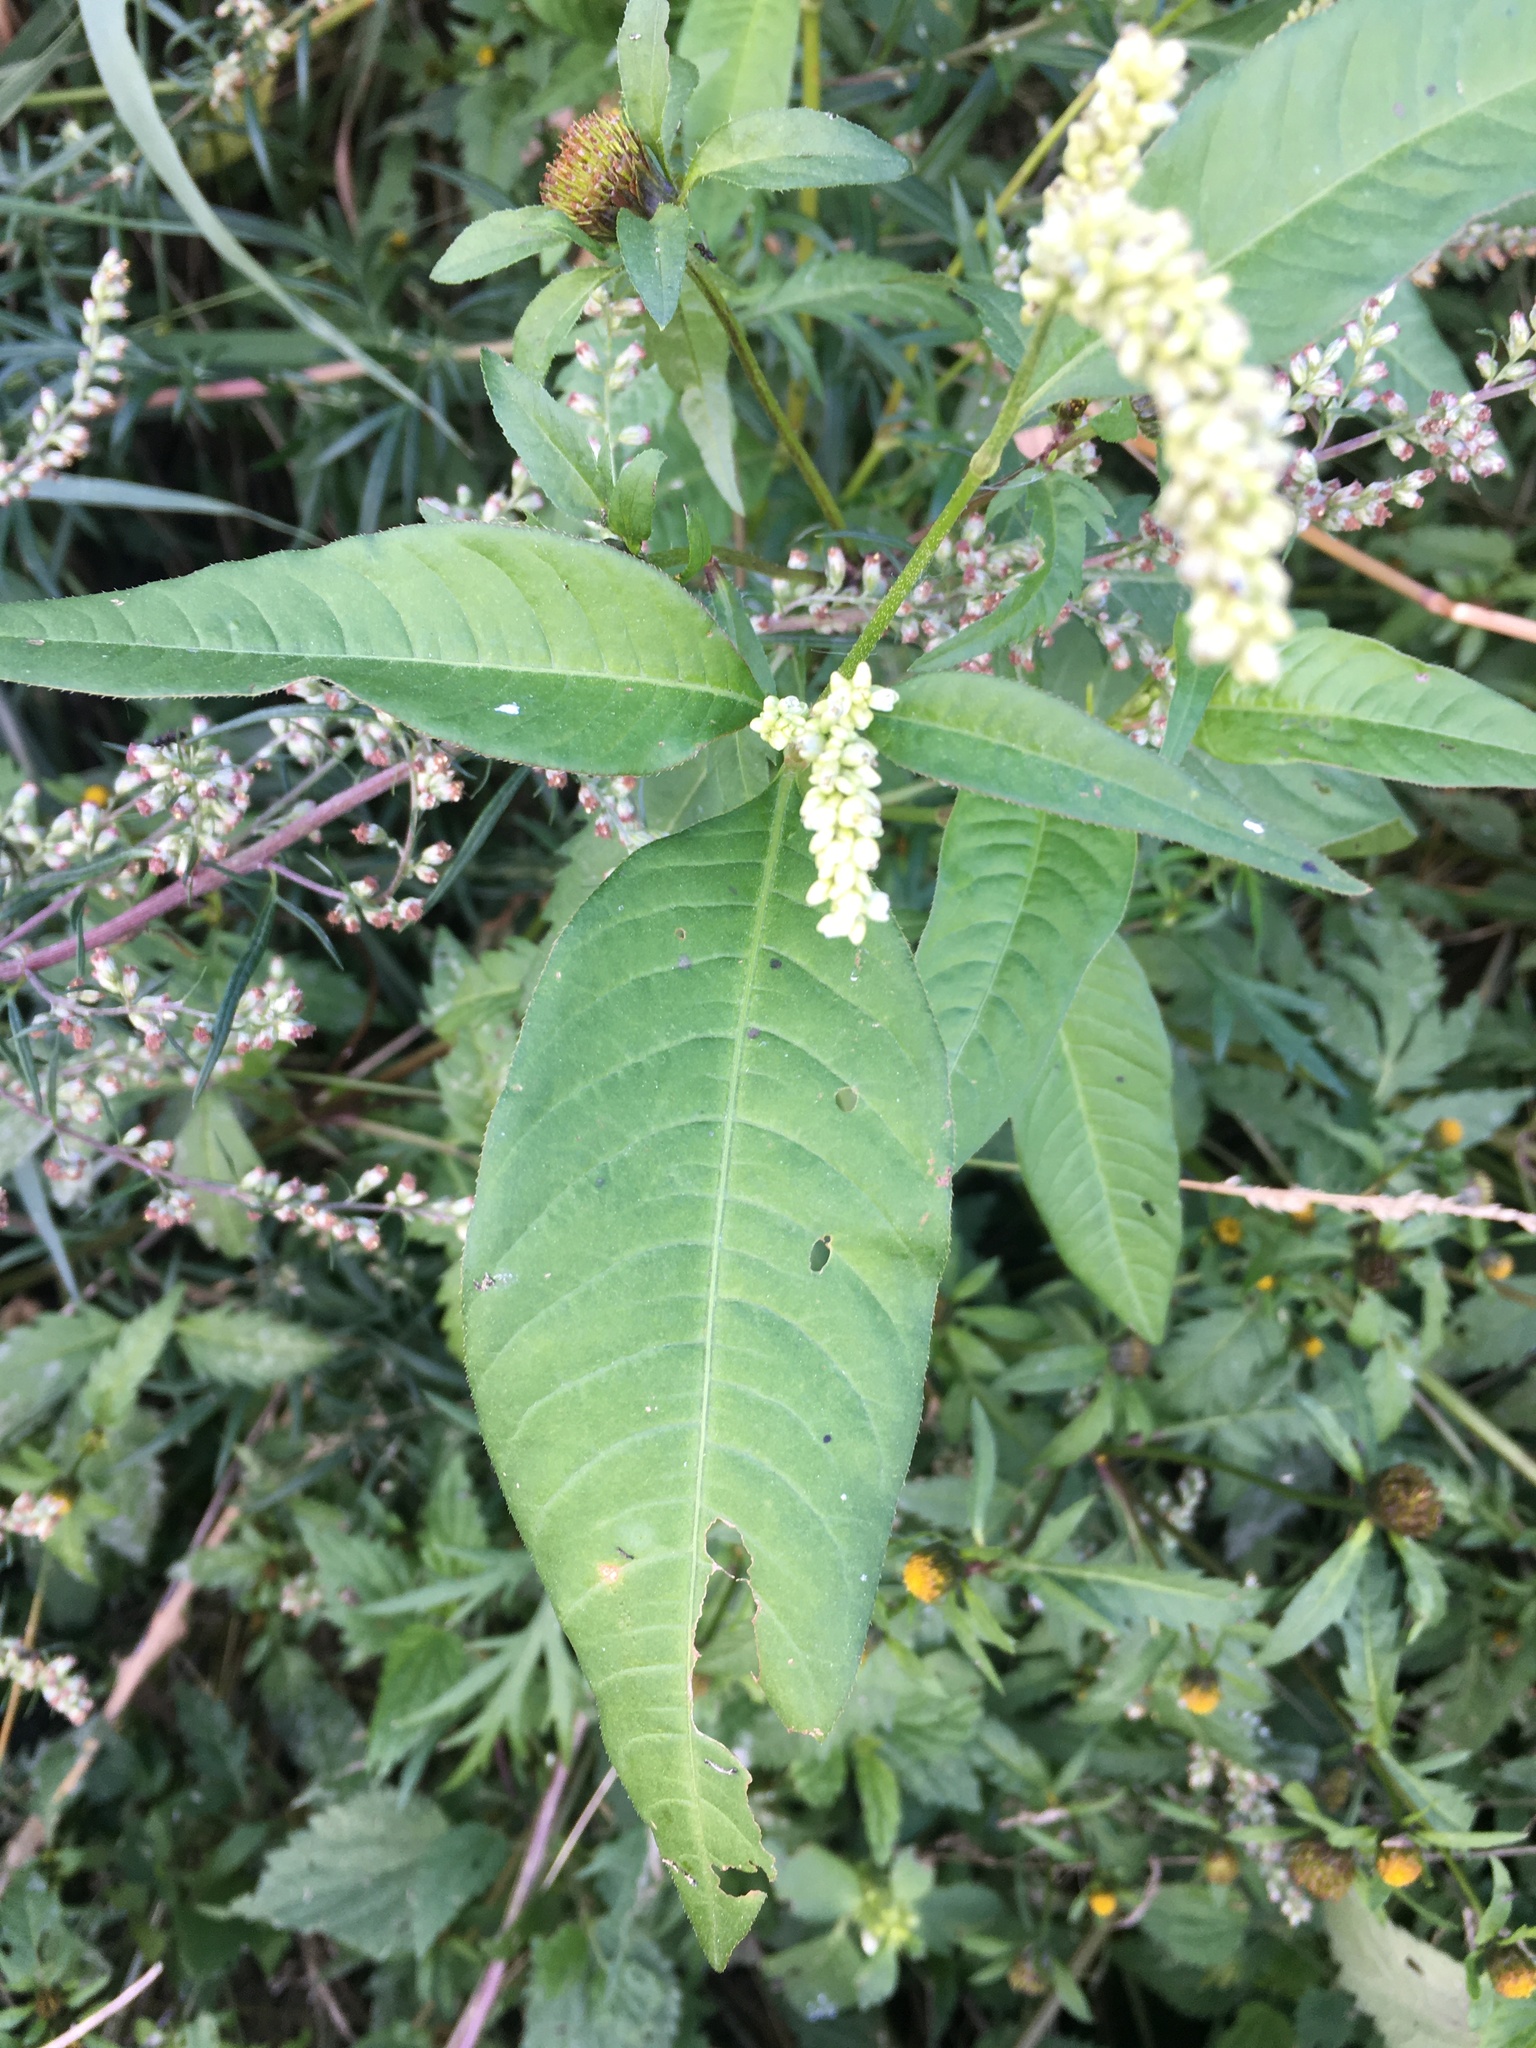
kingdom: Plantae
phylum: Tracheophyta
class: Magnoliopsida
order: Caryophyllales
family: Polygonaceae
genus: Persicaria
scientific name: Persicaria lapathifolia
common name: Curlytop knotweed
